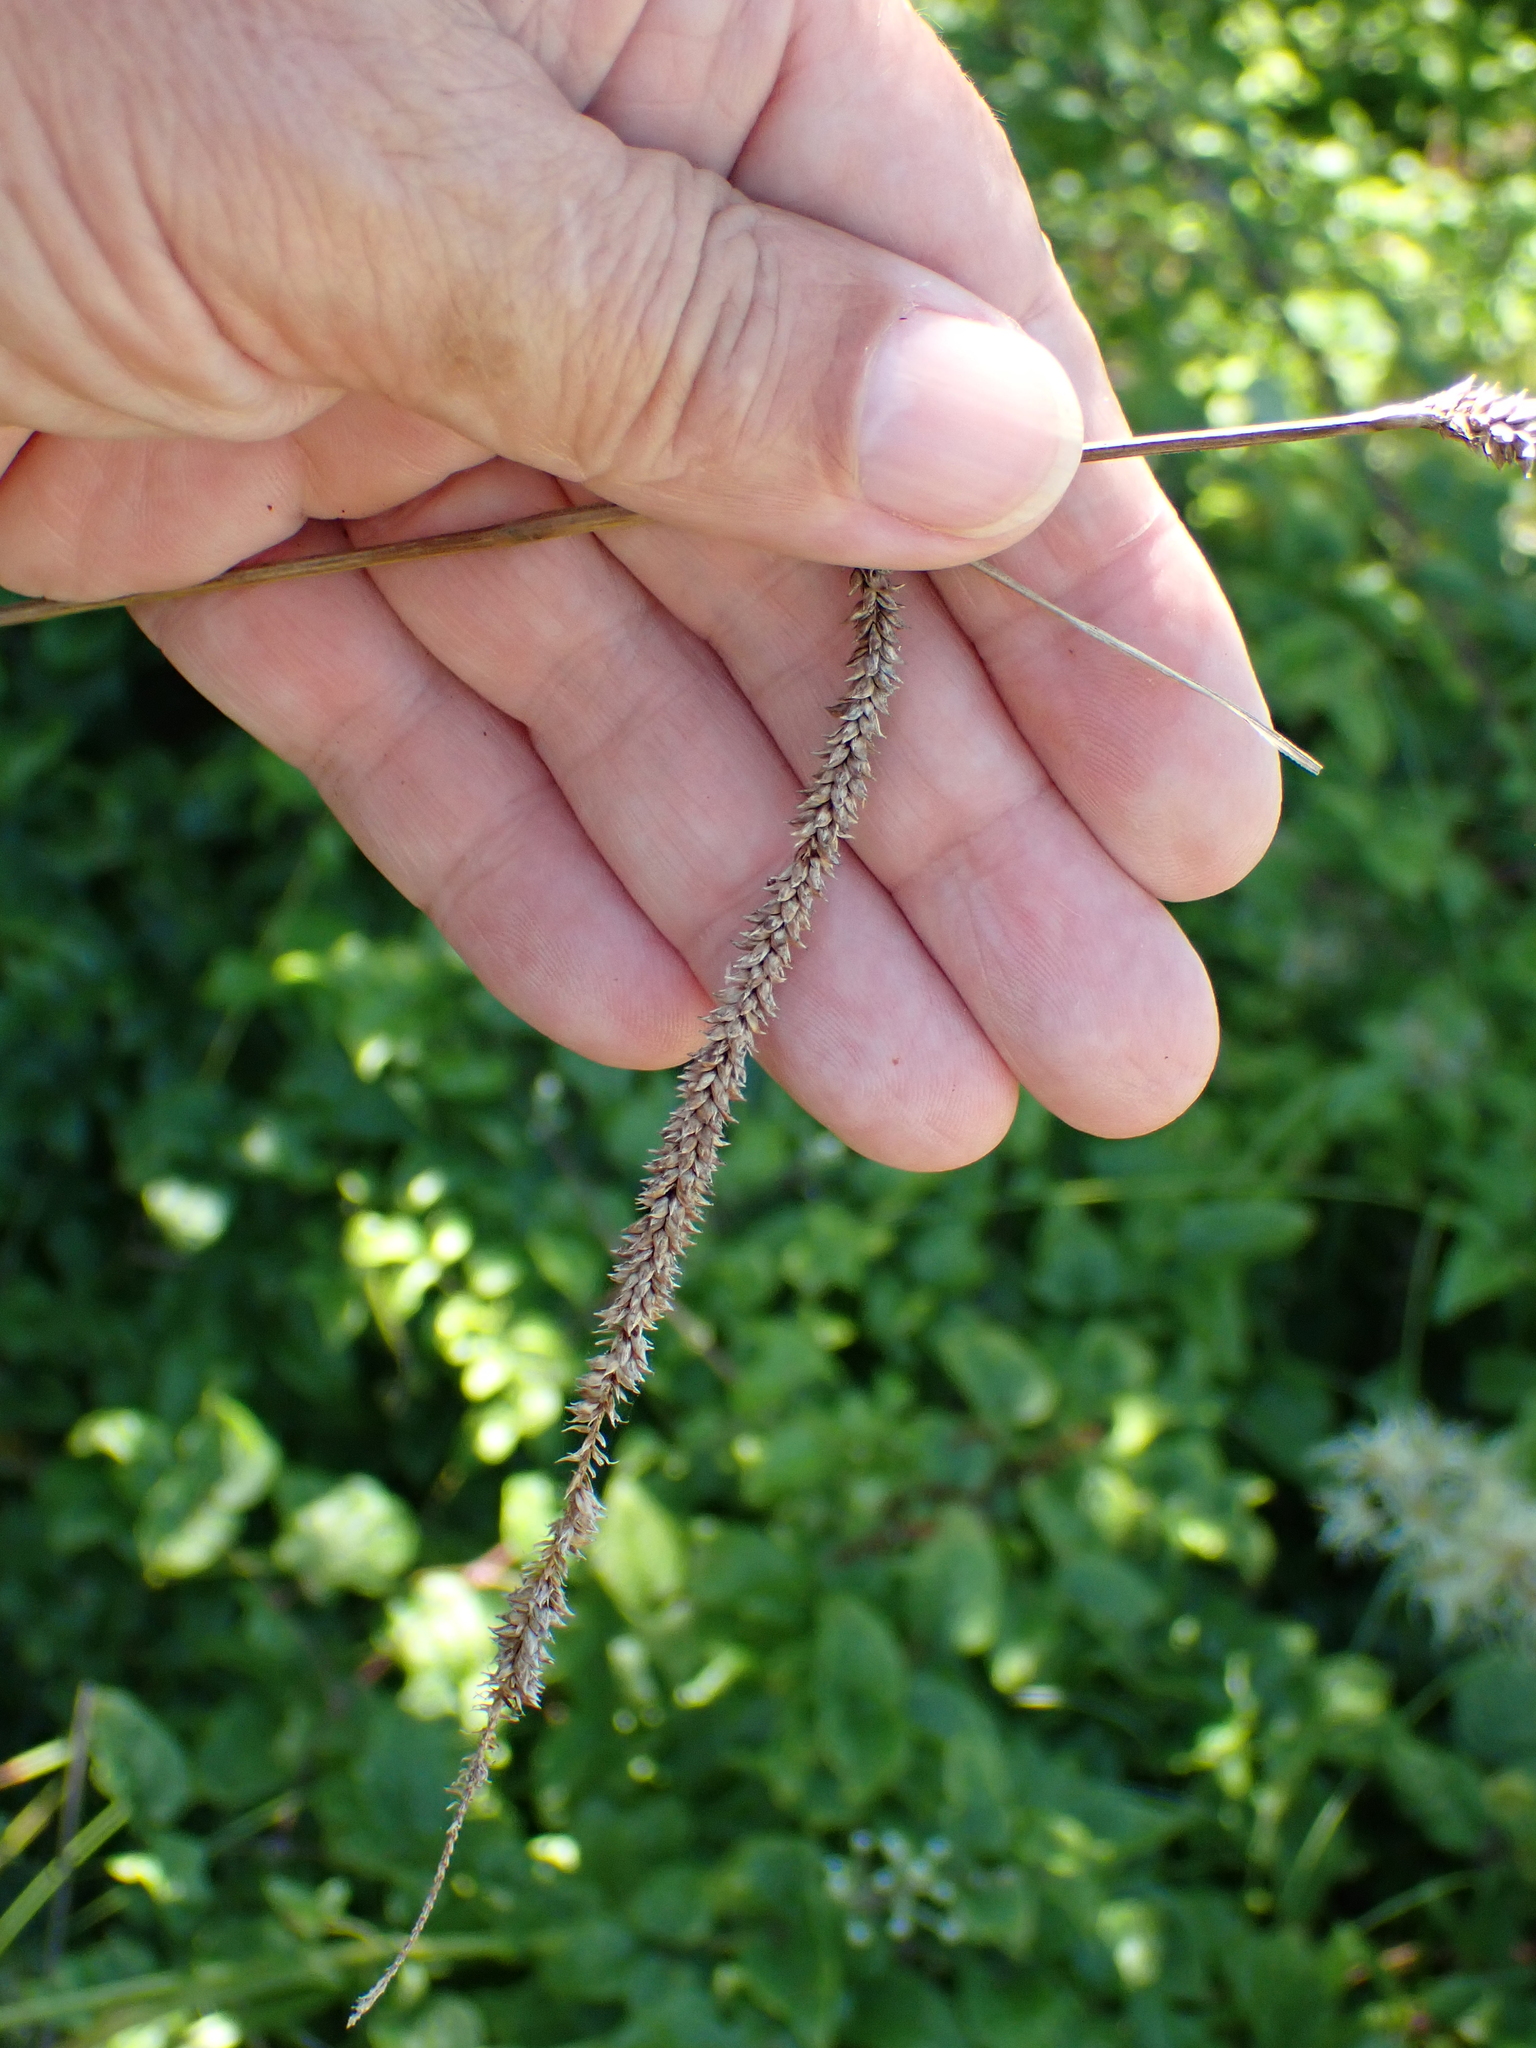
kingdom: Plantae
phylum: Tracheophyta
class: Liliopsida
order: Poales
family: Cyperaceae
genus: Carex
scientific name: Carex pendula
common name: Pendulous sedge
